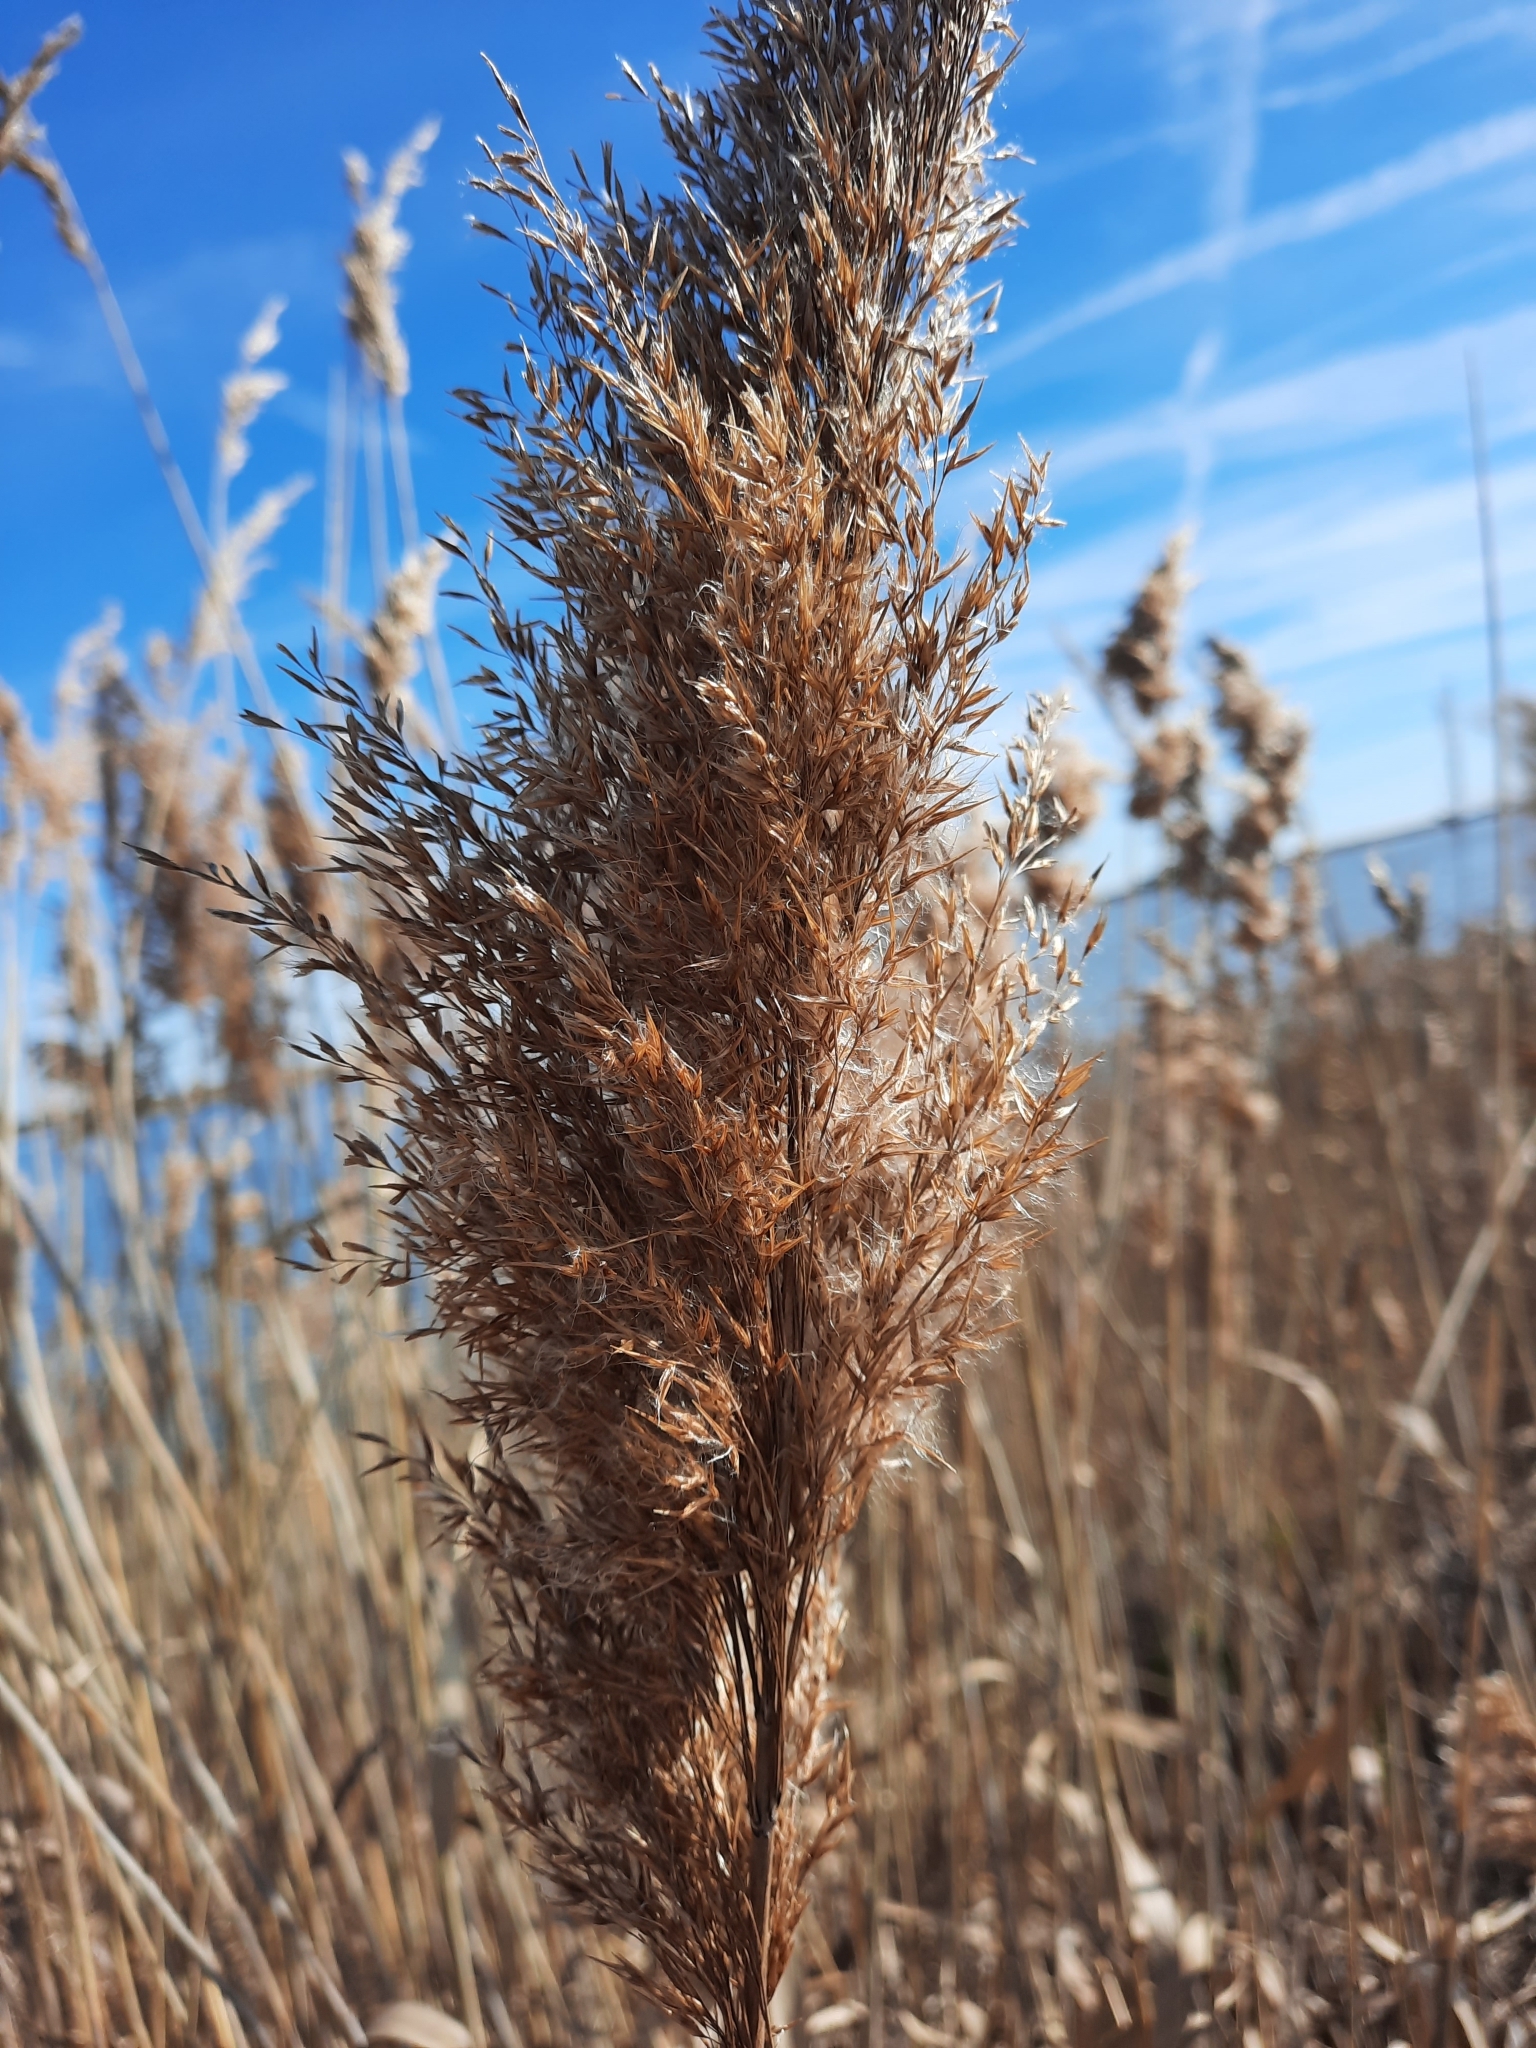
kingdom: Plantae
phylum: Tracheophyta
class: Liliopsida
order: Poales
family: Poaceae
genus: Phragmites
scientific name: Phragmites australis
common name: Common reed
